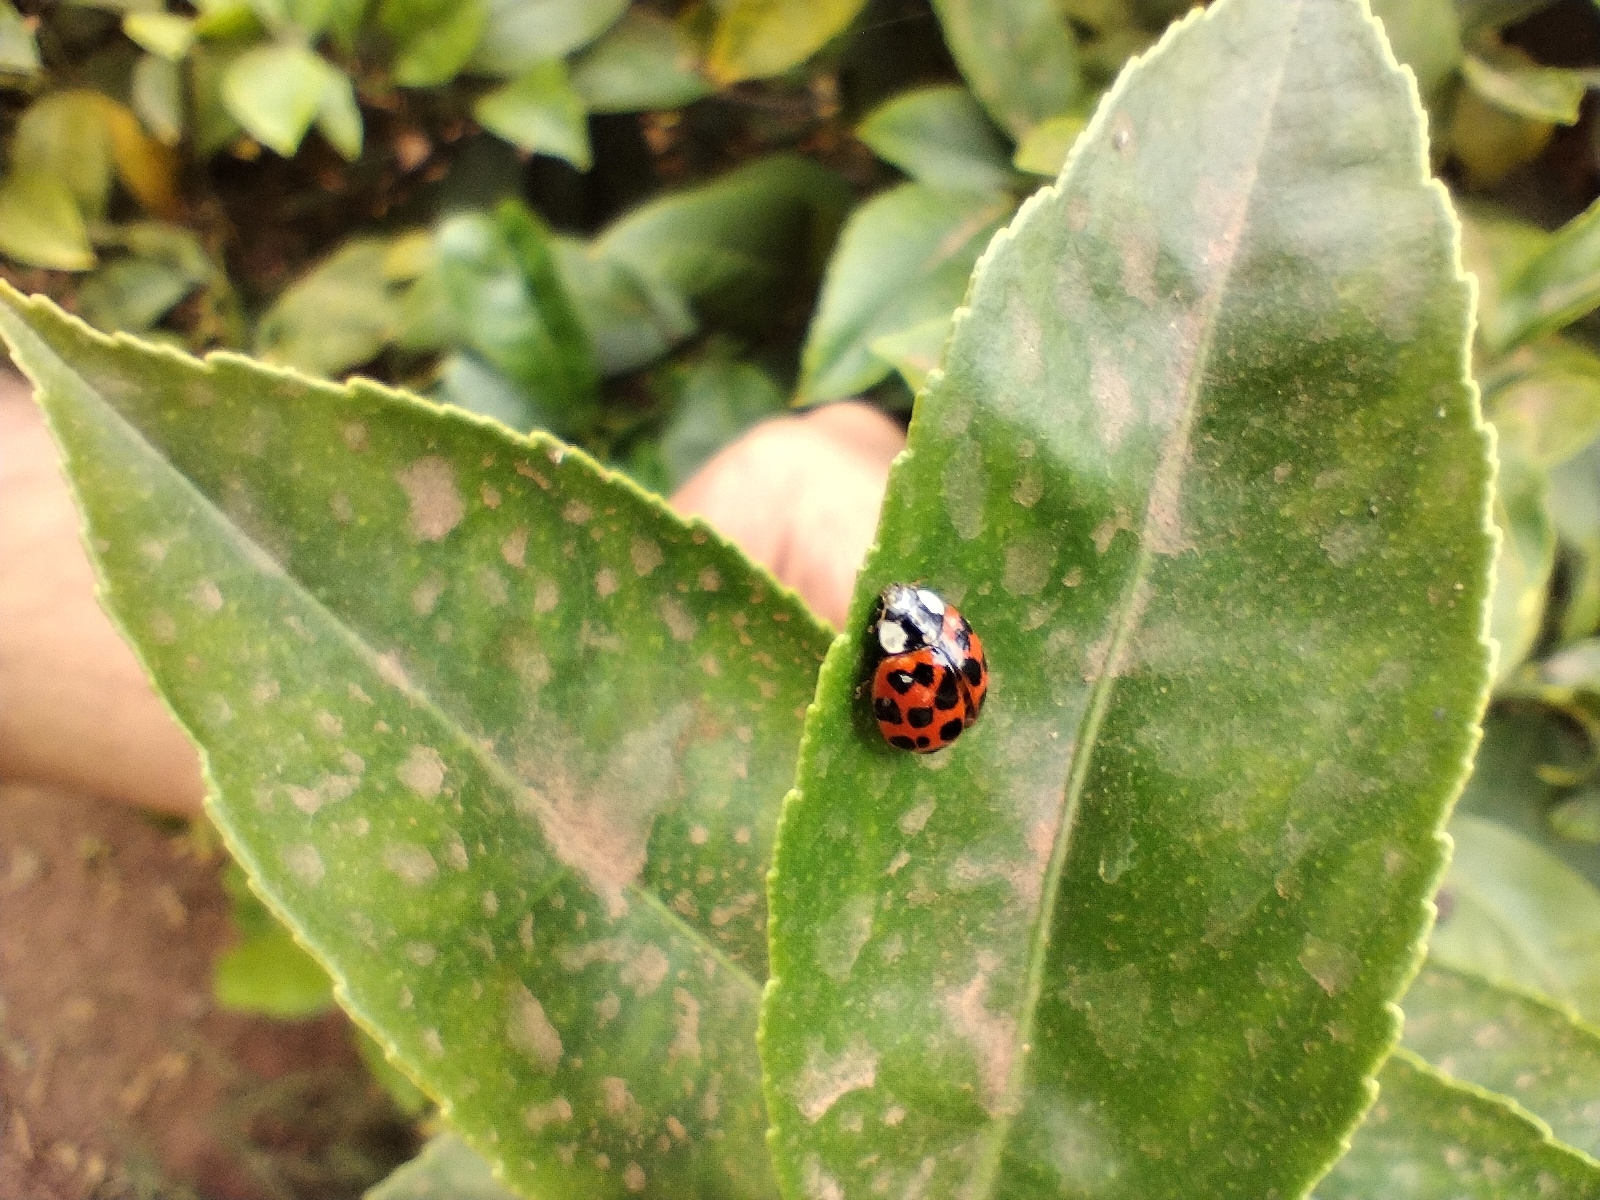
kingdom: Animalia
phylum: Arthropoda
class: Insecta
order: Coleoptera
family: Coccinellidae
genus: Harmonia
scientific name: Harmonia axyridis
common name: Harlequin ladybird
